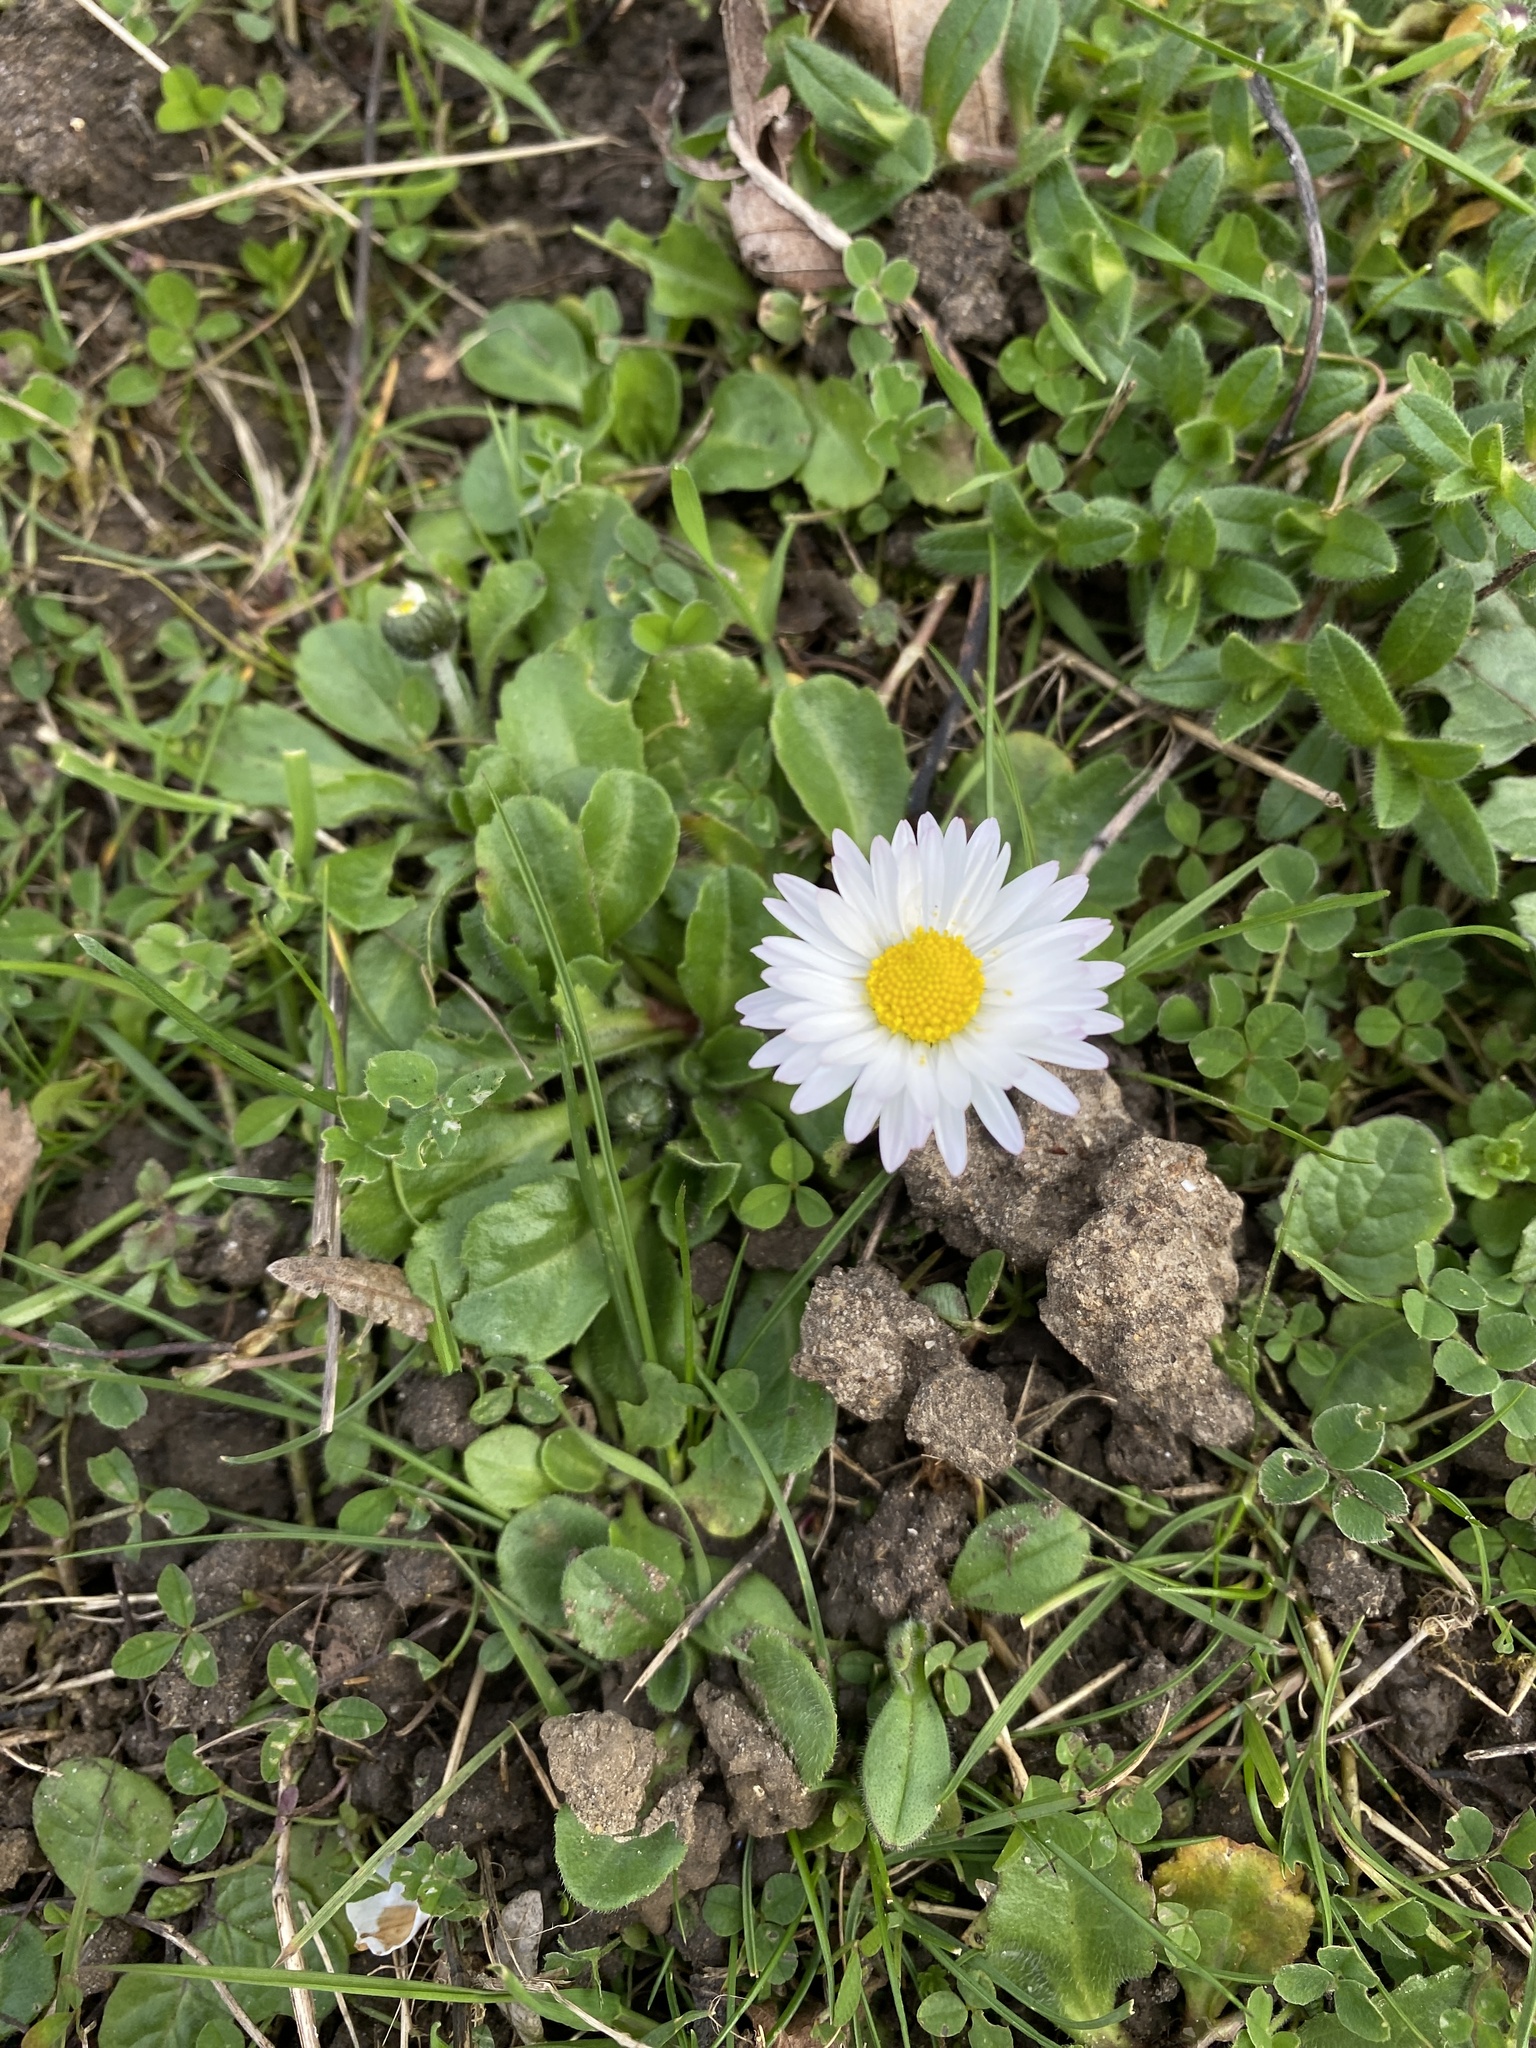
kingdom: Plantae
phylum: Tracheophyta
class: Magnoliopsida
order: Asterales
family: Asteraceae
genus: Bellis
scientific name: Bellis perennis
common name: Lawndaisy
